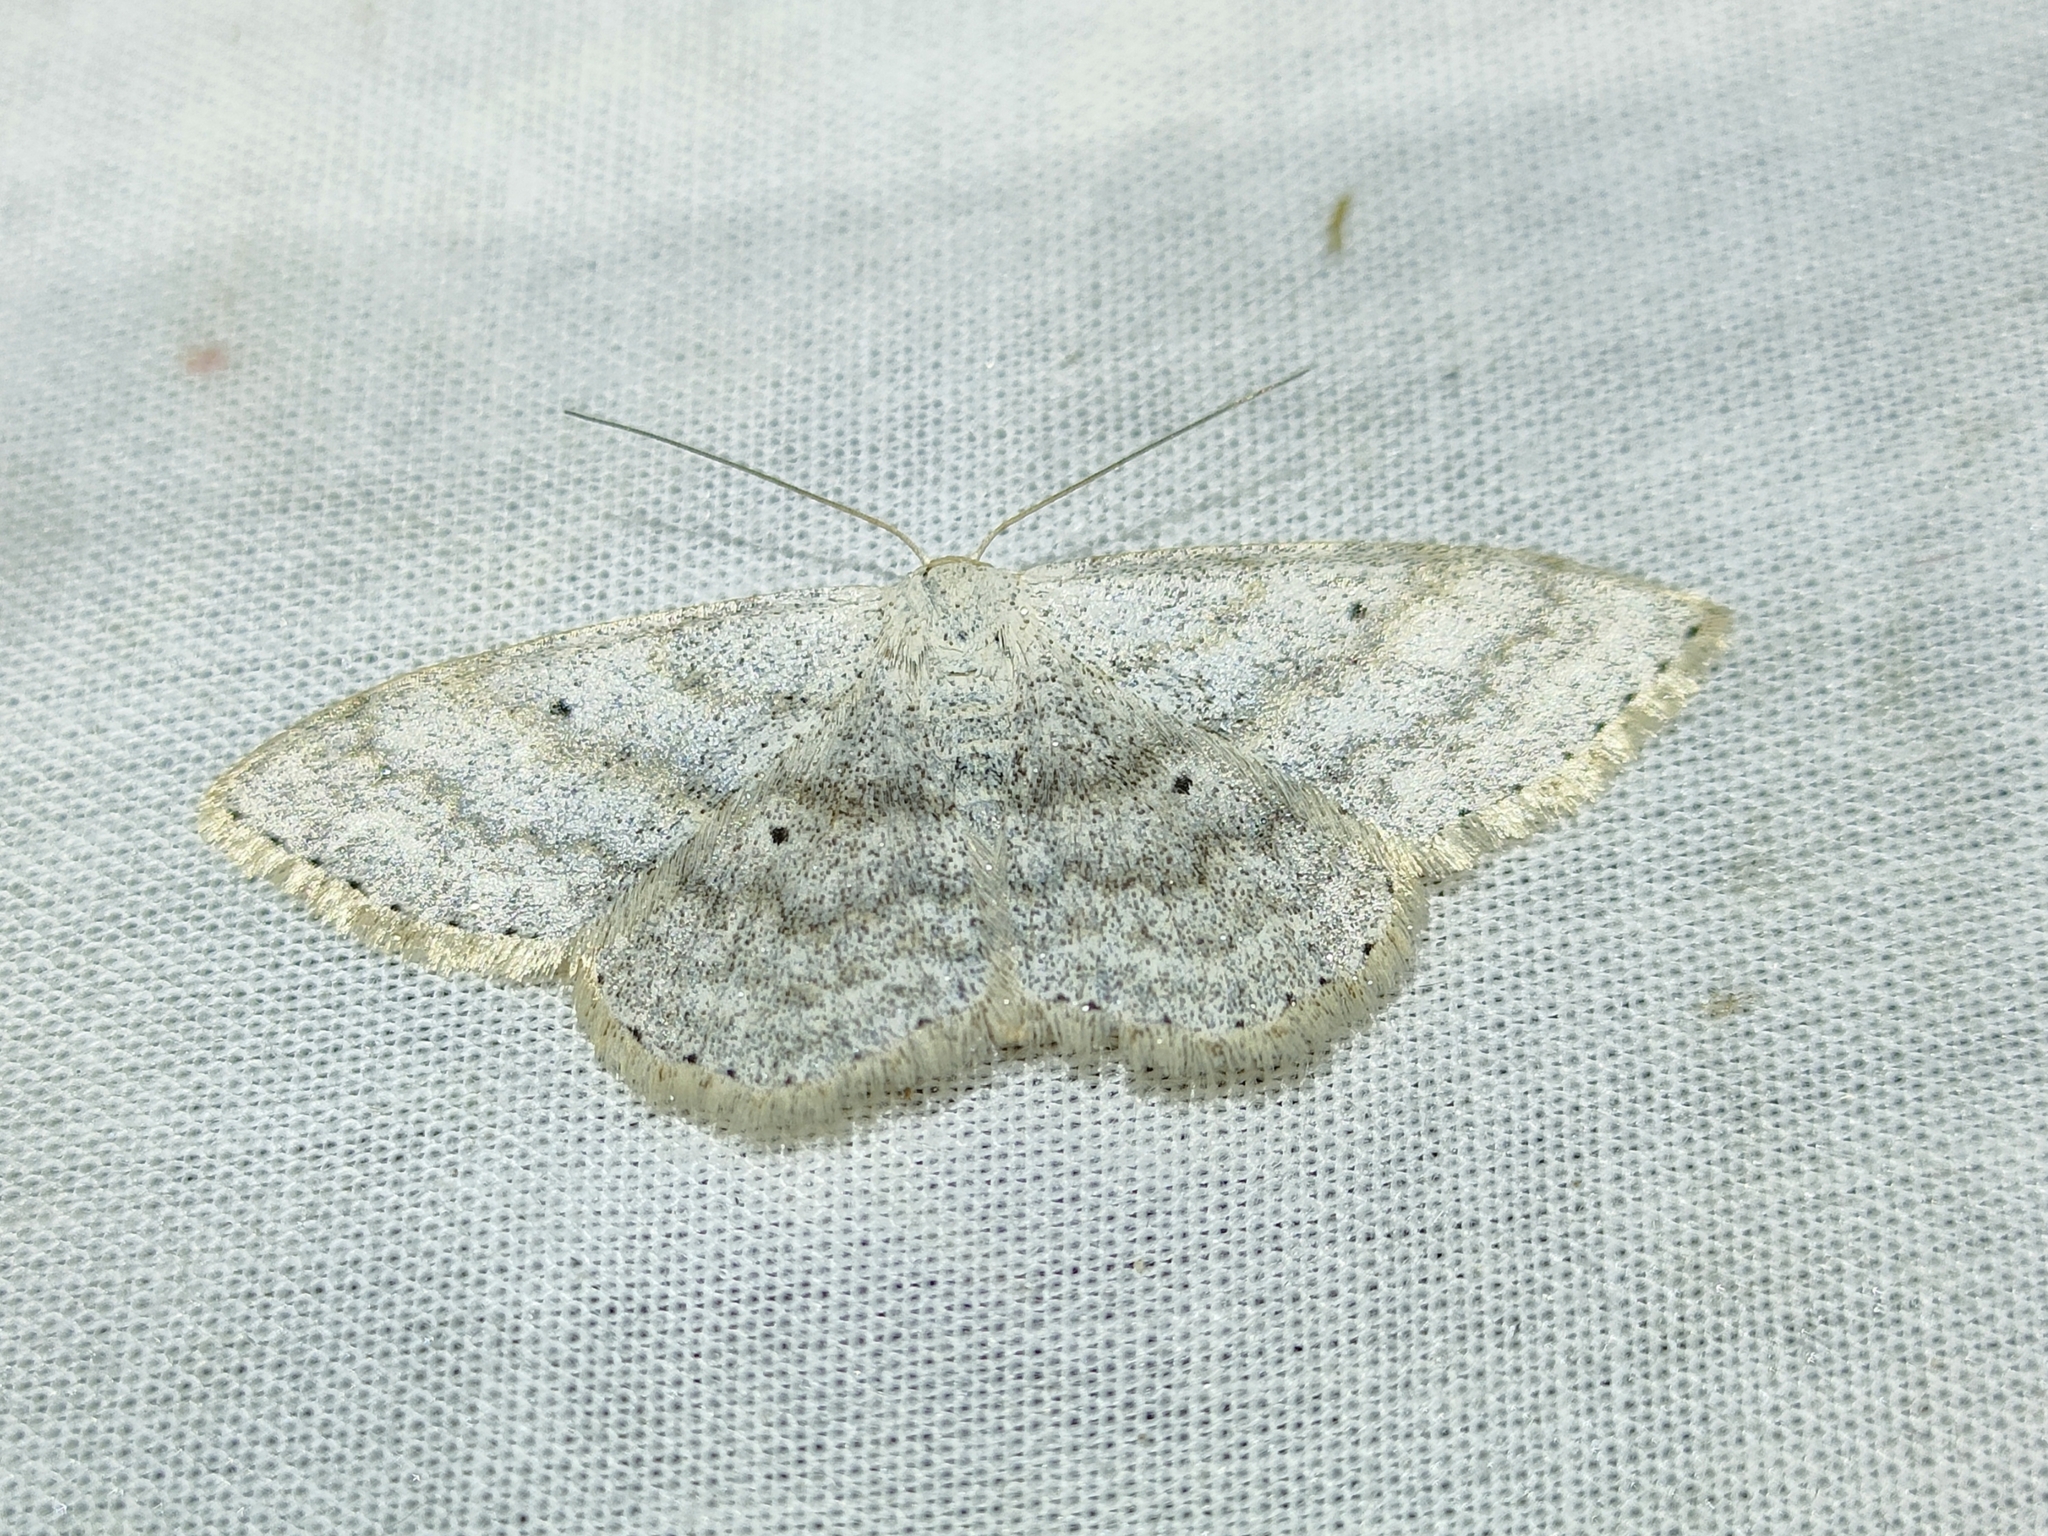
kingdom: Animalia
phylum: Arthropoda
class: Insecta
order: Lepidoptera
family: Geometridae
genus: Scopula
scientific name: Scopula incanata
